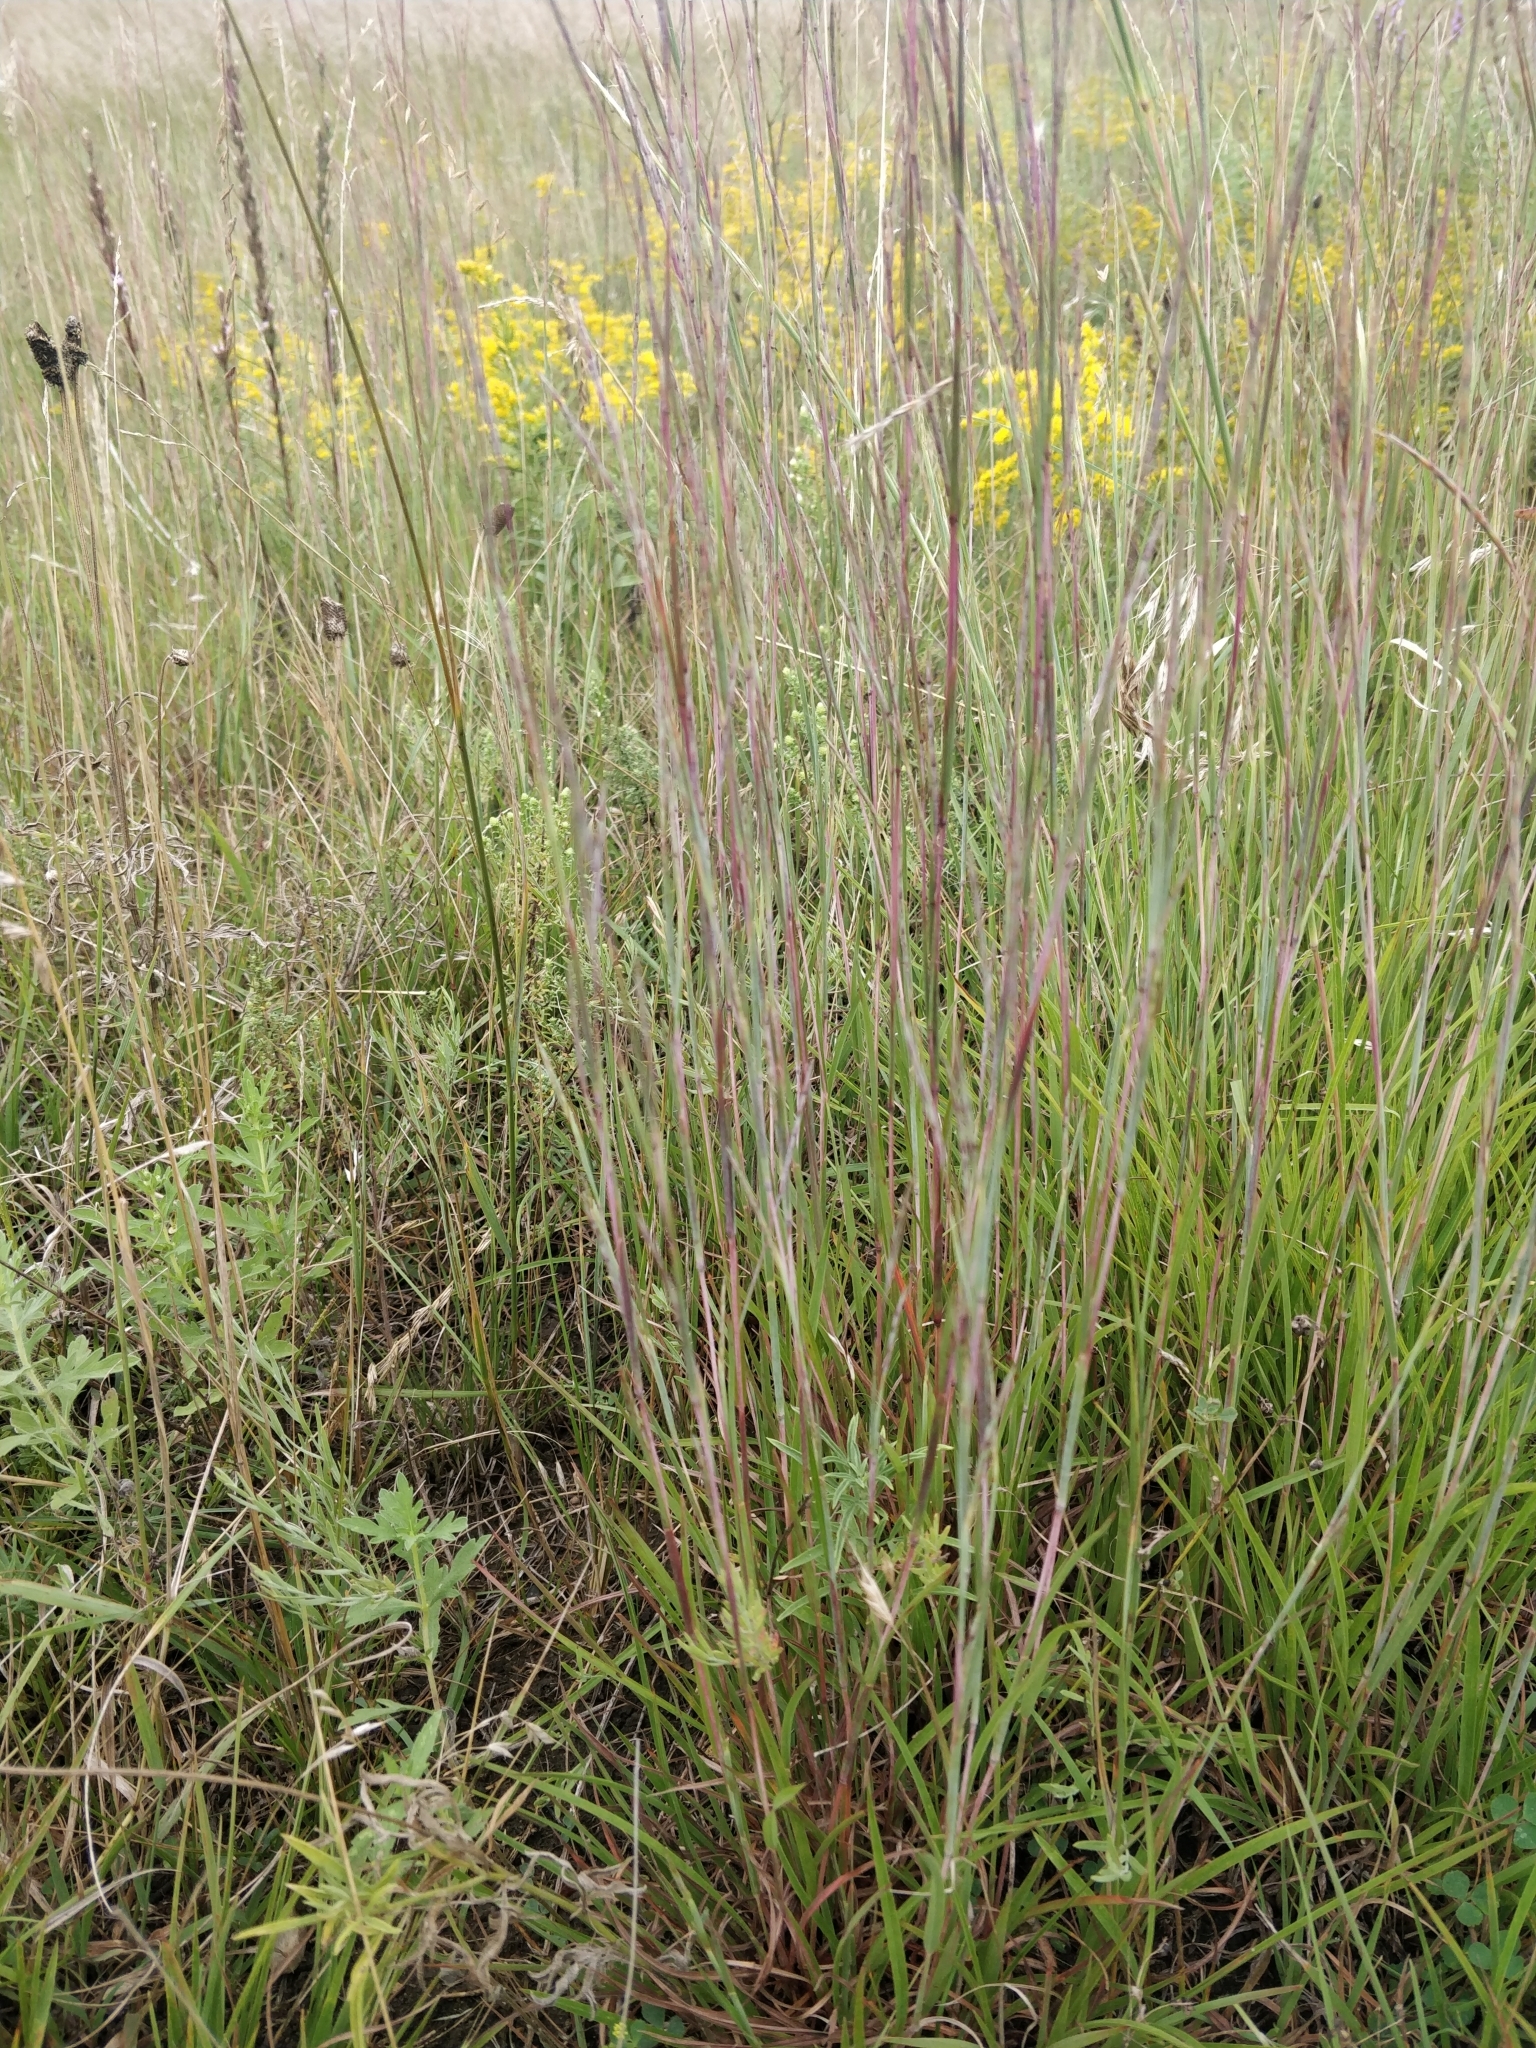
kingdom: Plantae
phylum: Tracheophyta
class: Liliopsida
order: Poales
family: Poaceae
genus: Schizachyrium
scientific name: Schizachyrium scoparium
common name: Little bluestem
